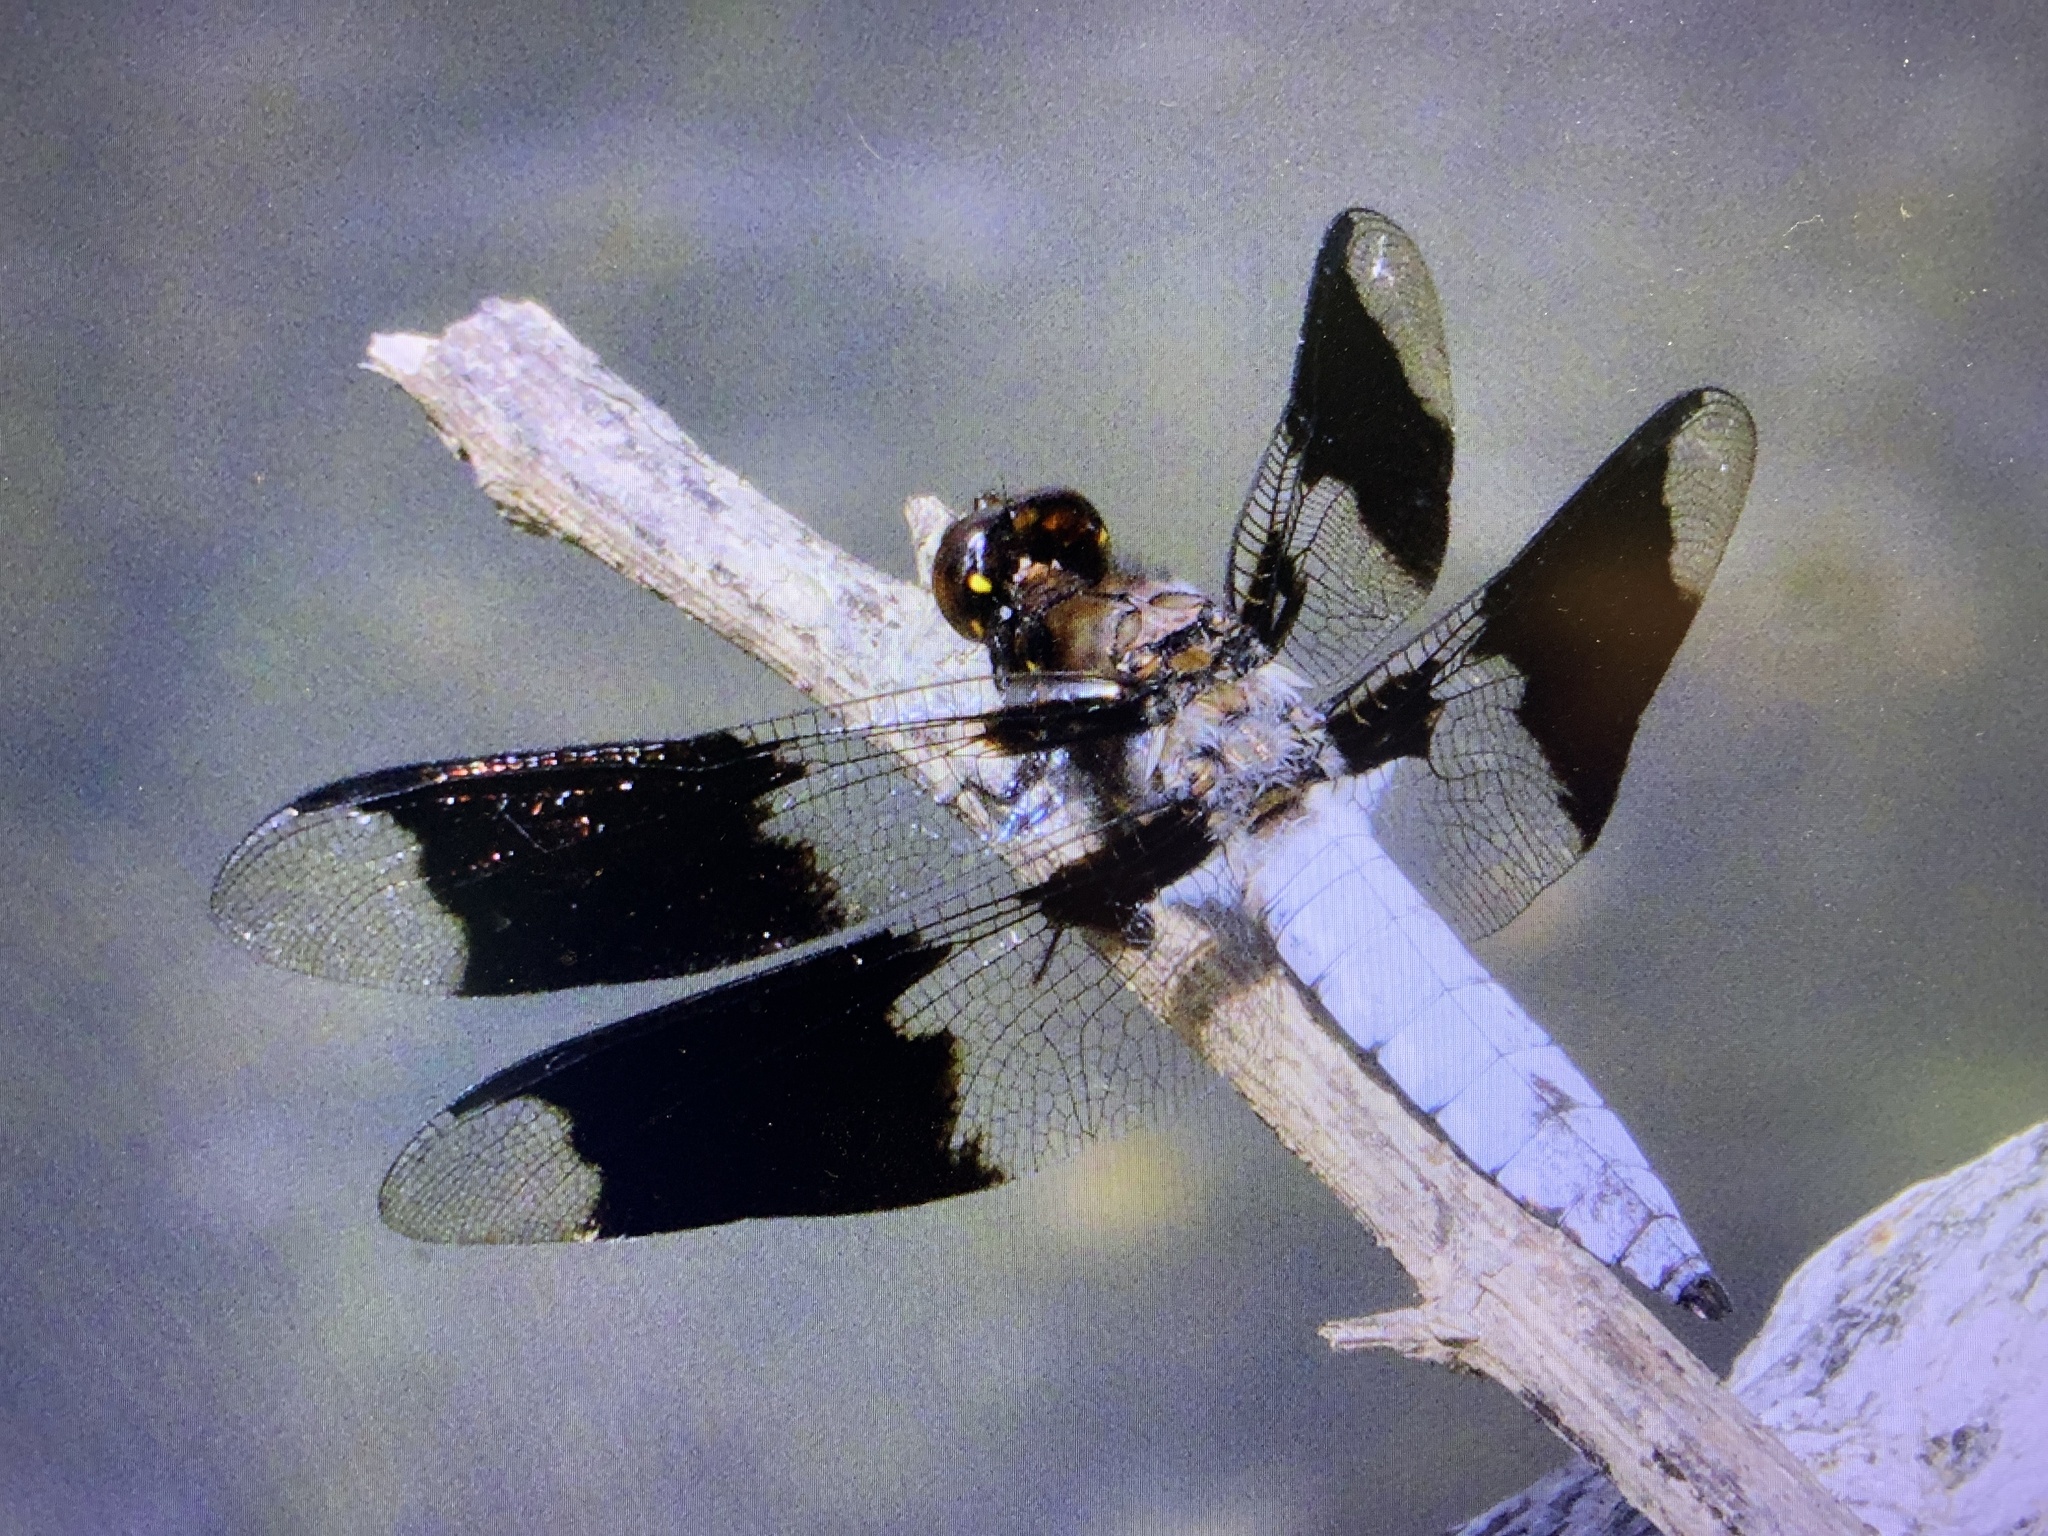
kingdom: Animalia
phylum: Arthropoda
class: Insecta
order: Odonata
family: Libellulidae
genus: Plathemis
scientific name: Plathemis lydia
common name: Common whitetail
